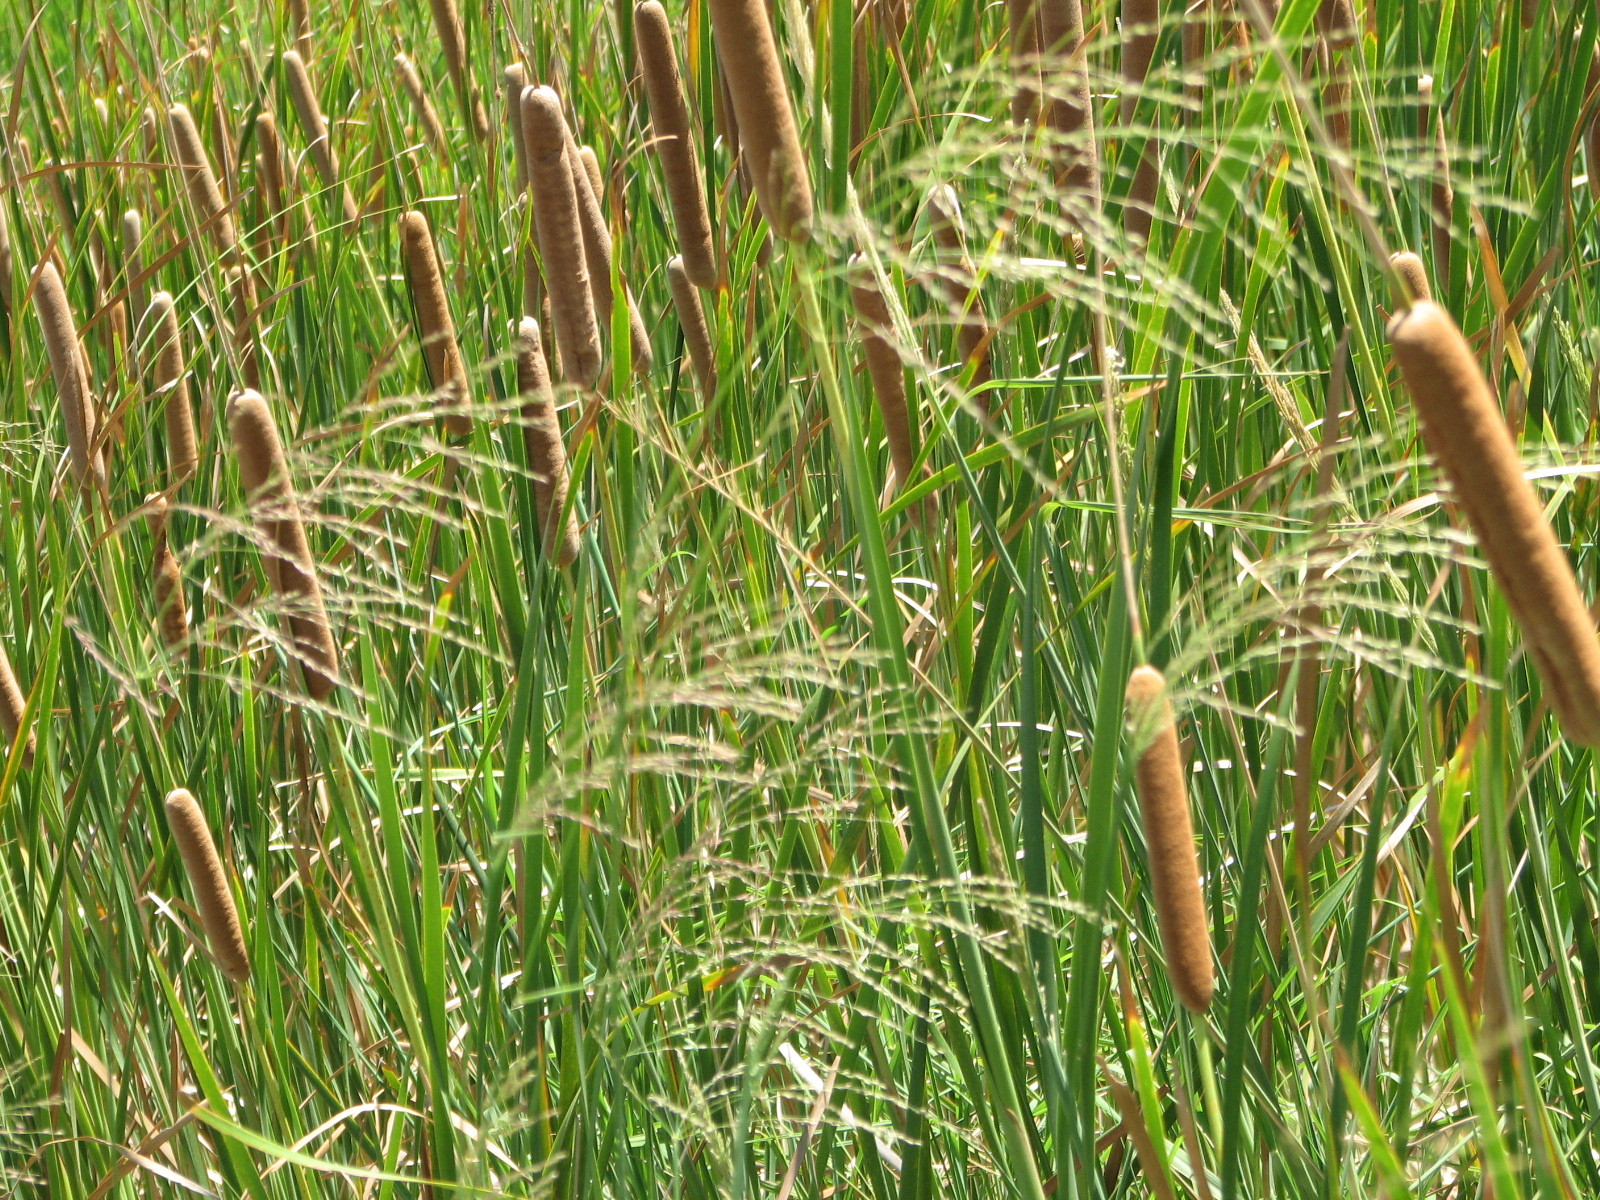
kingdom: Plantae
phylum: Tracheophyta
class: Liliopsida
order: Poales
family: Typhaceae
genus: Typha
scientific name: Typha domingensis
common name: Southern cattail
